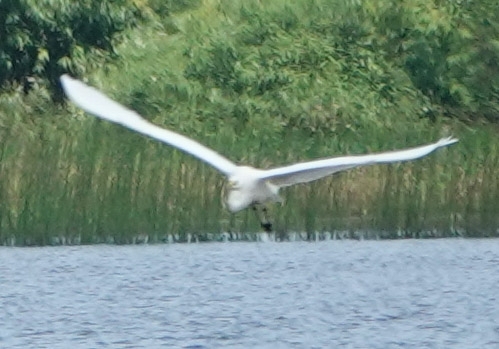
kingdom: Animalia
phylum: Chordata
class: Aves
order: Pelecaniformes
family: Ardeidae
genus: Ardea
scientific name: Ardea alba
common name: Great egret
